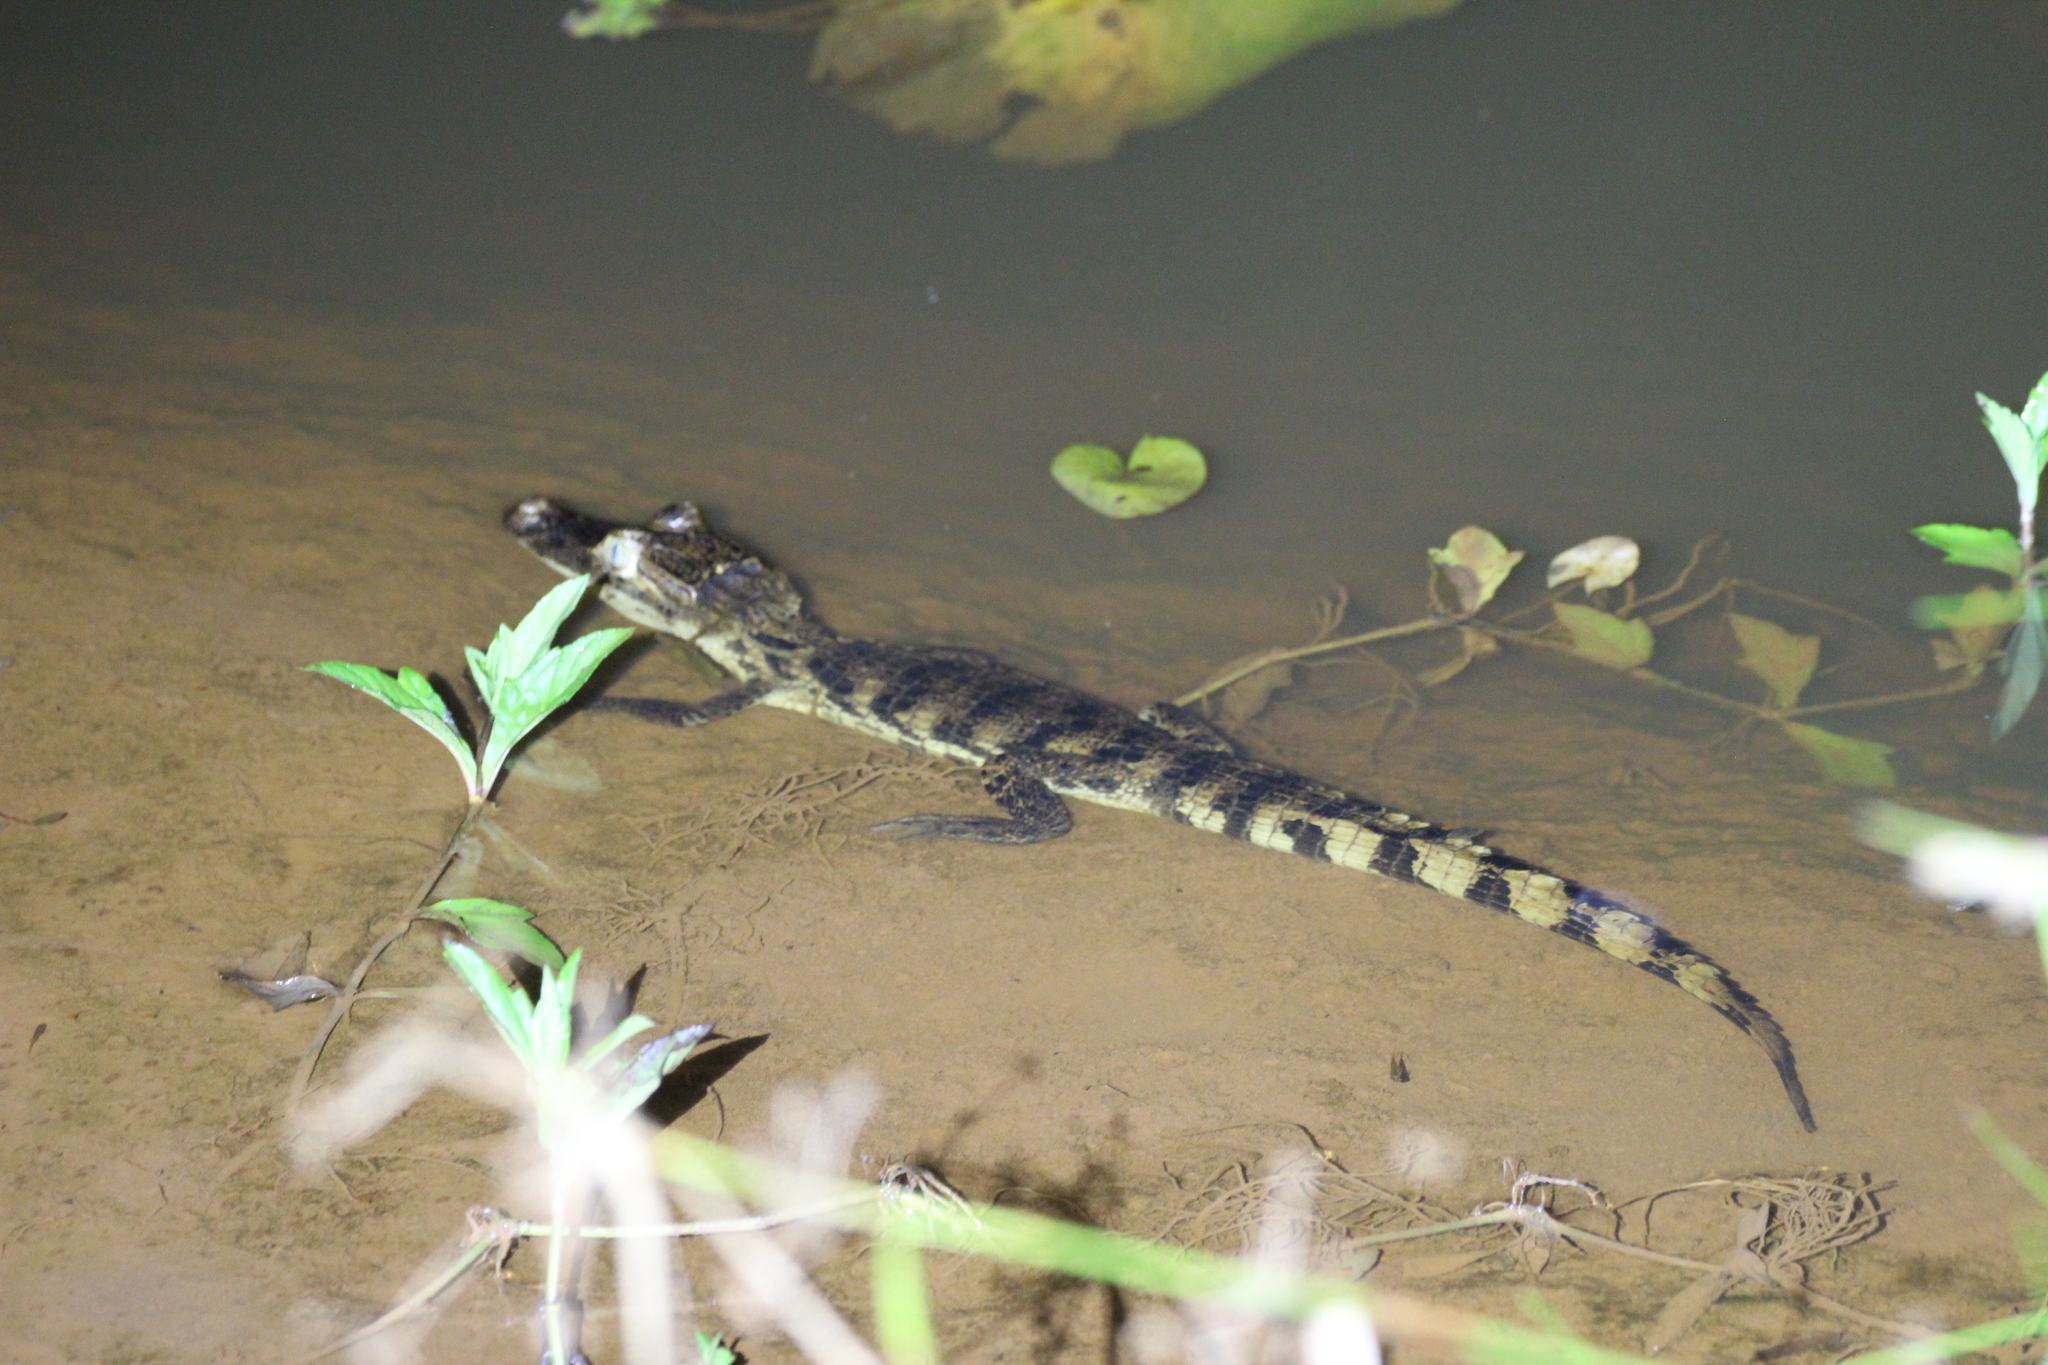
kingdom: Animalia
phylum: Chordata
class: Crocodylia
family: Alligatoridae
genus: Caiman
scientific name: Caiman crocodilus
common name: Common caiman
